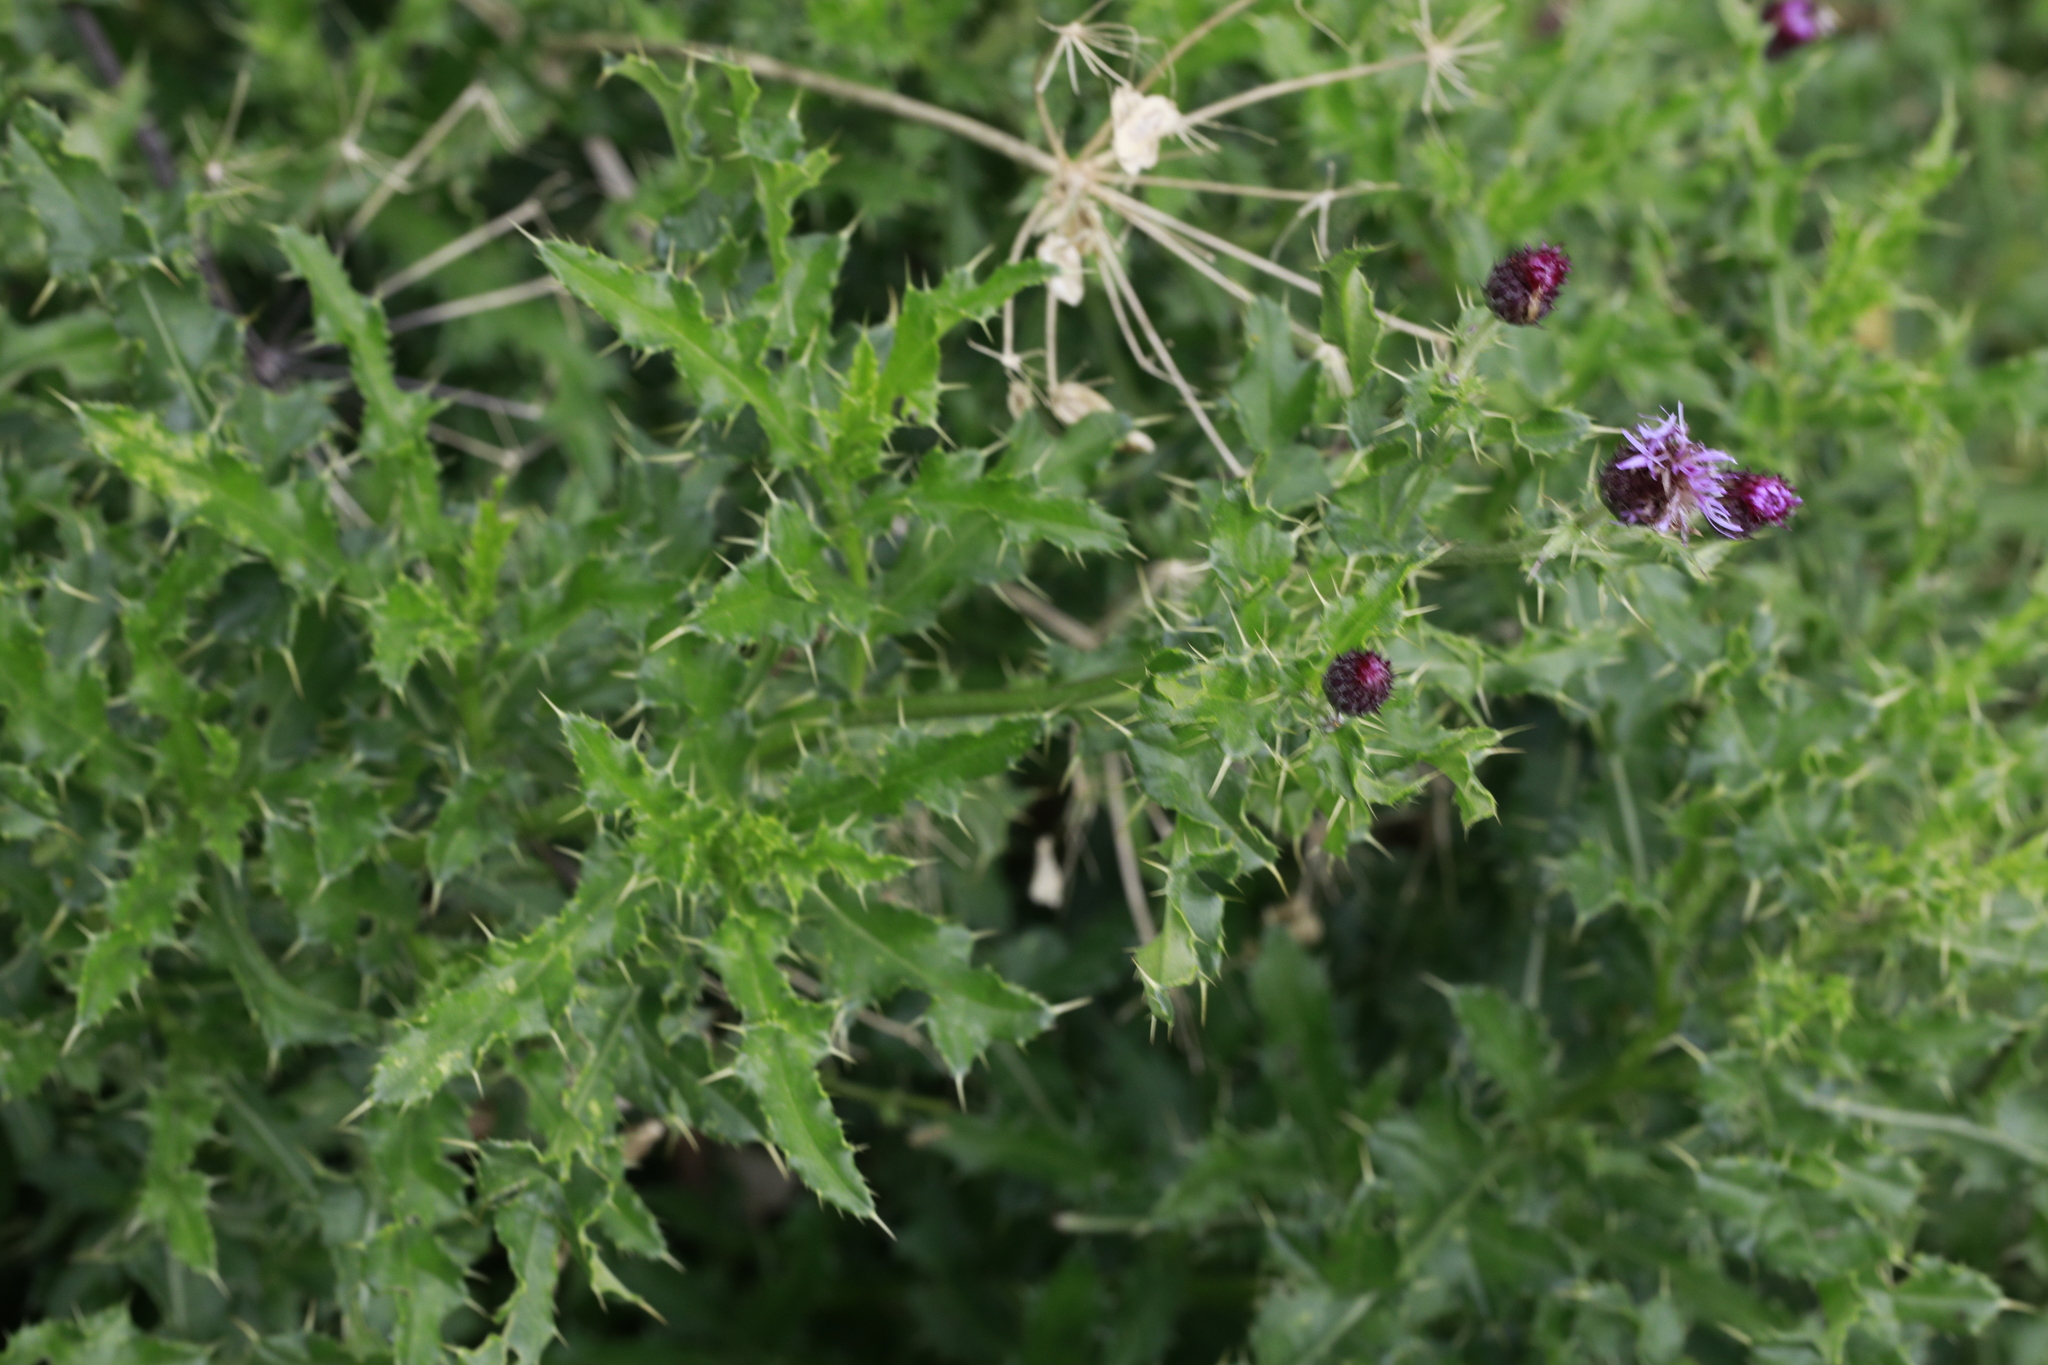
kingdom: Plantae
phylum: Tracheophyta
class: Magnoliopsida
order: Asterales
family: Asteraceae
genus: Cirsium
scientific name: Cirsium arvense
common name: Creeping thistle
